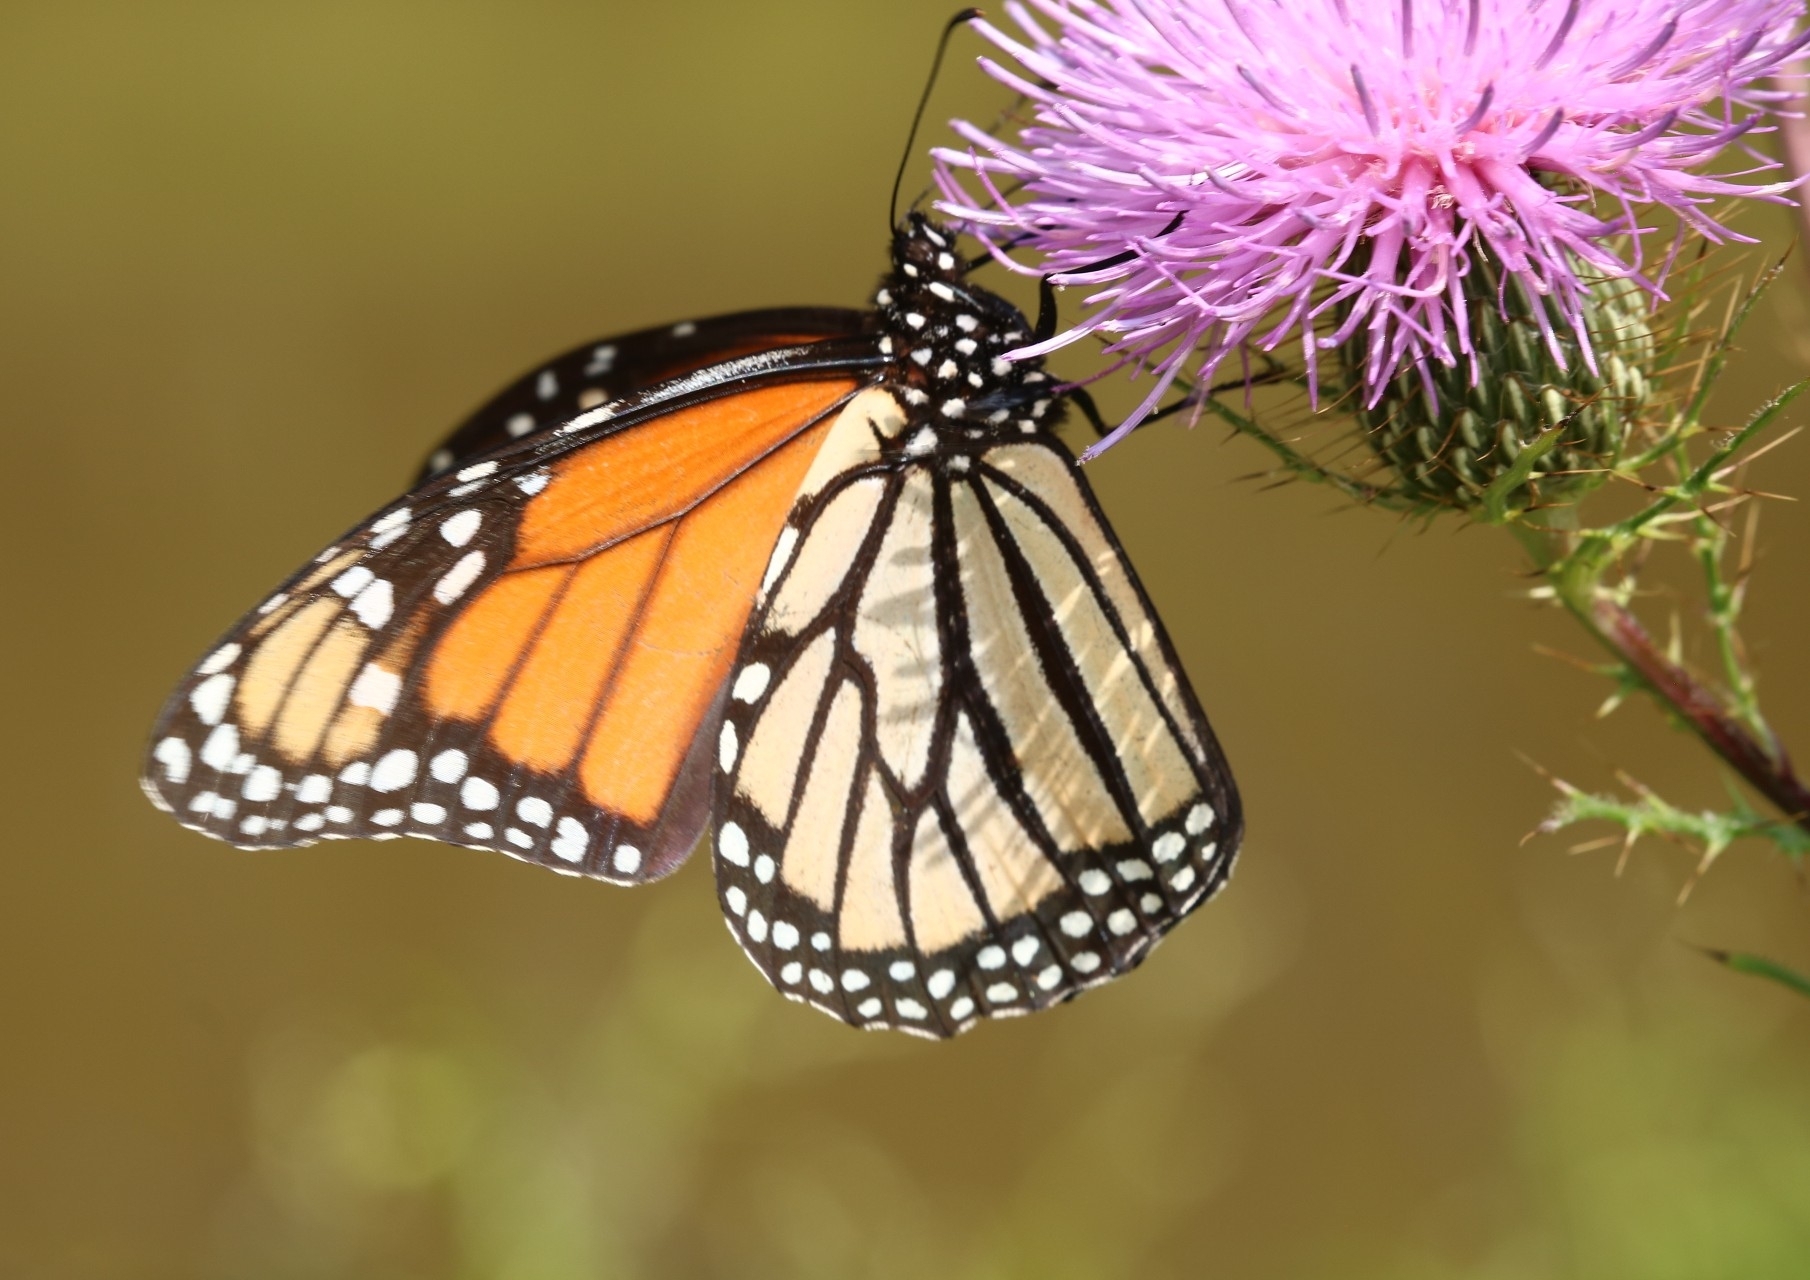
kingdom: Animalia
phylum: Arthropoda
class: Insecta
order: Lepidoptera
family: Nymphalidae
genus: Danaus
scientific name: Danaus plexippus
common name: Monarch
